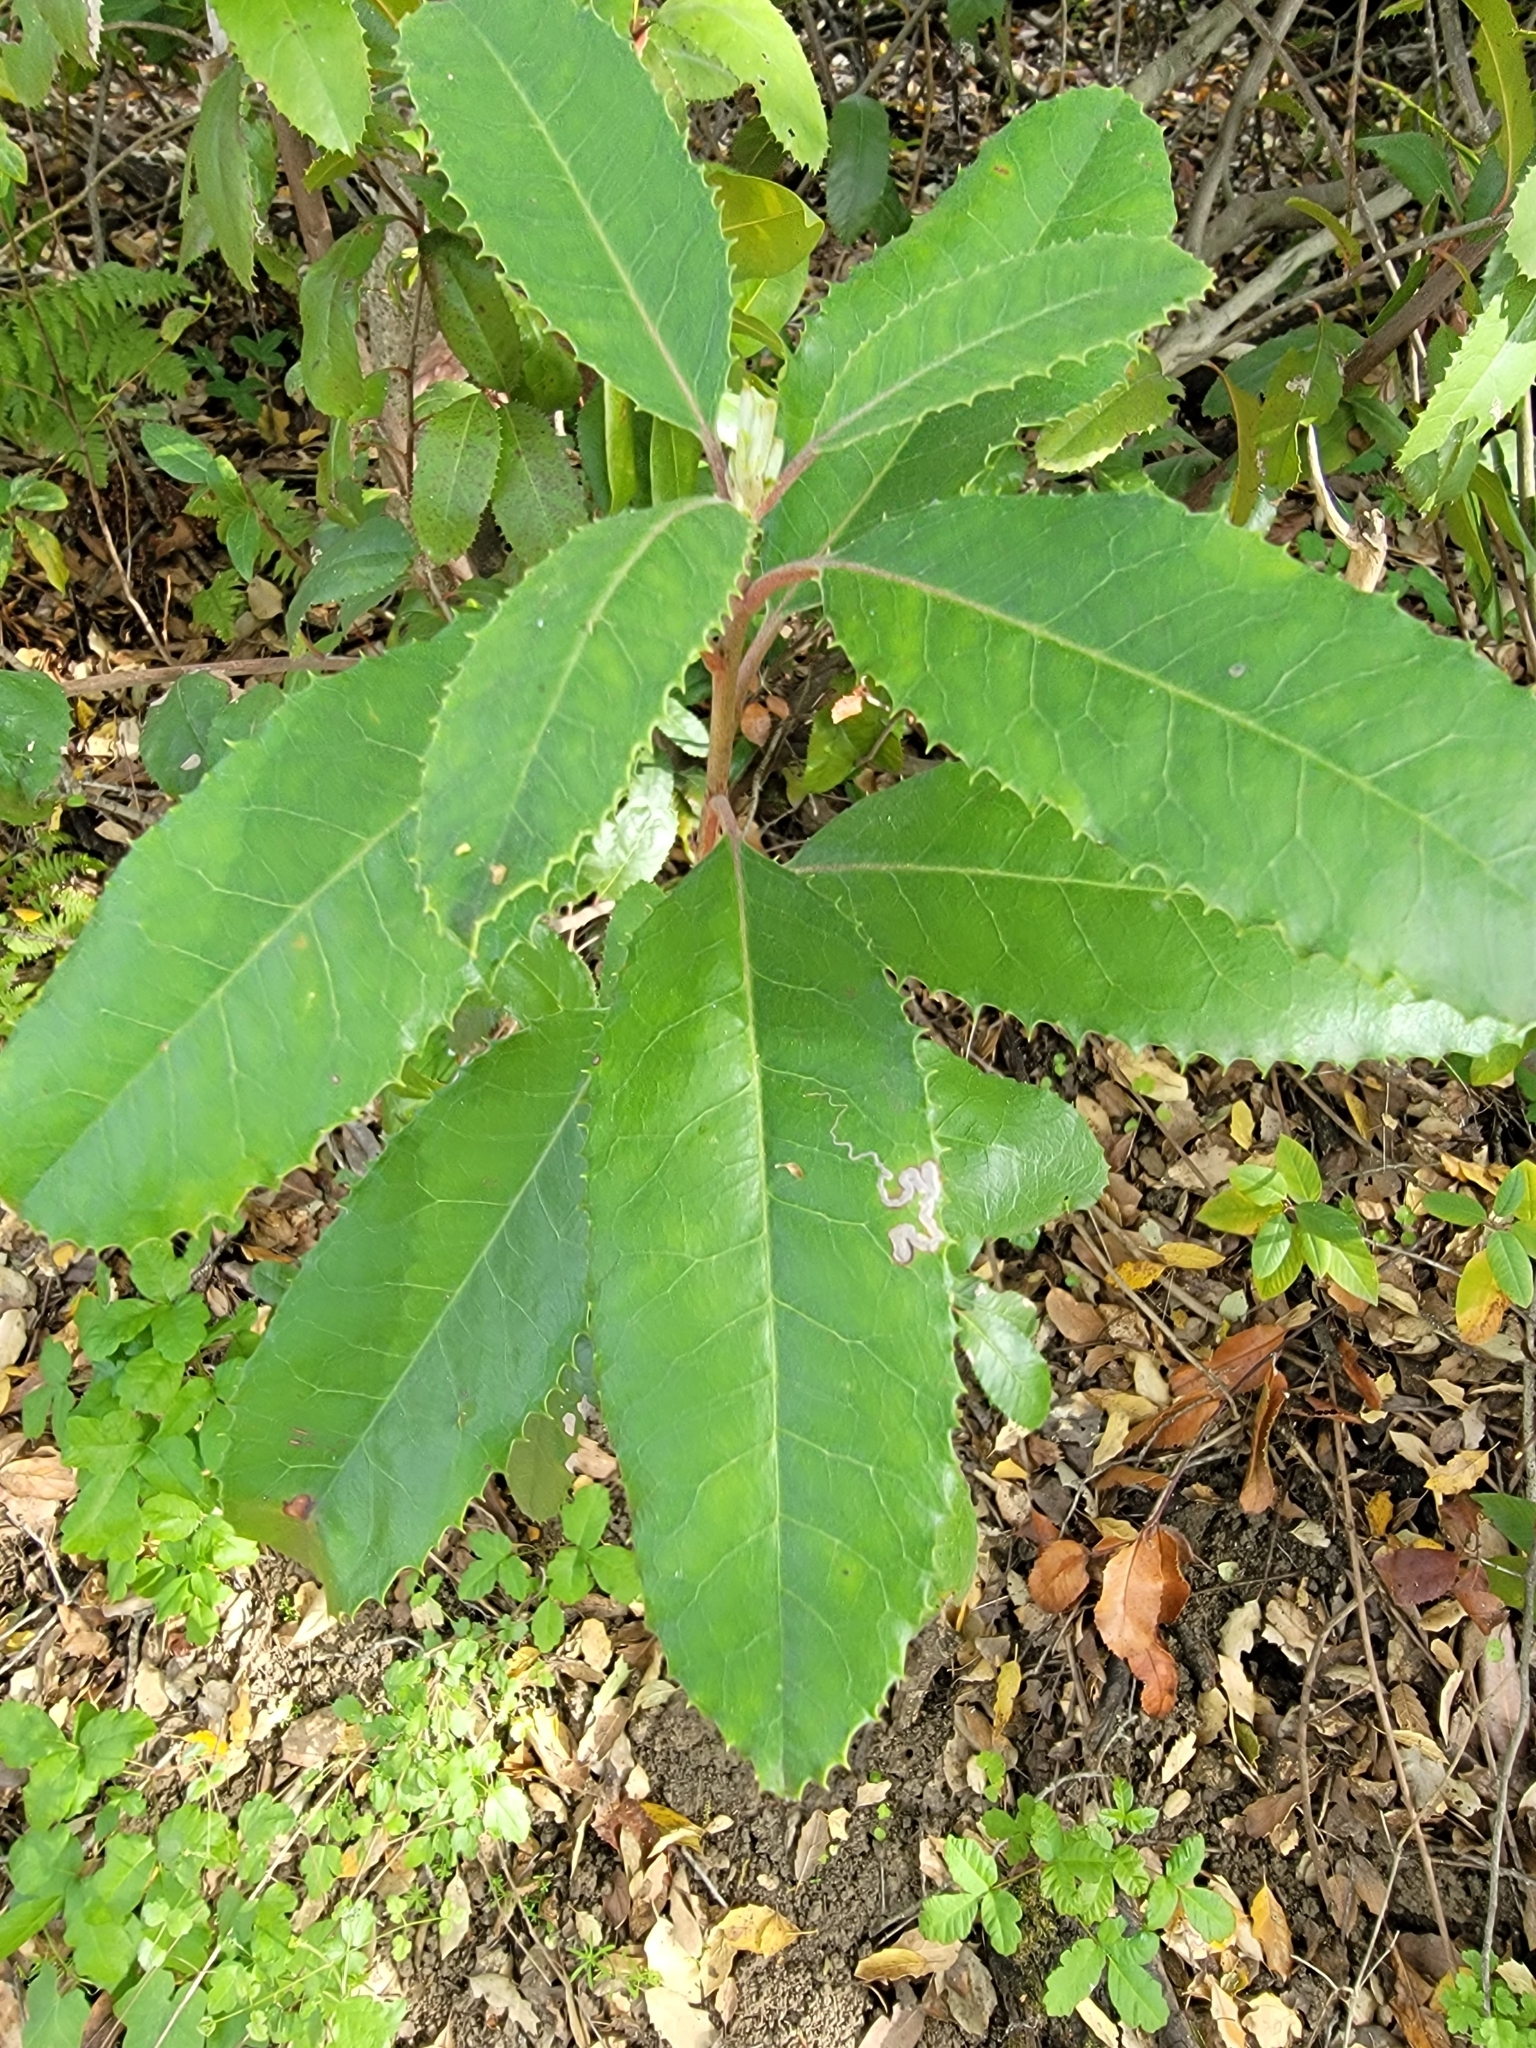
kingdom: Plantae
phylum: Tracheophyta
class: Magnoliopsida
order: Rosales
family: Rosaceae
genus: Heteromeles
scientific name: Heteromeles arbutifolia
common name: California-holly
